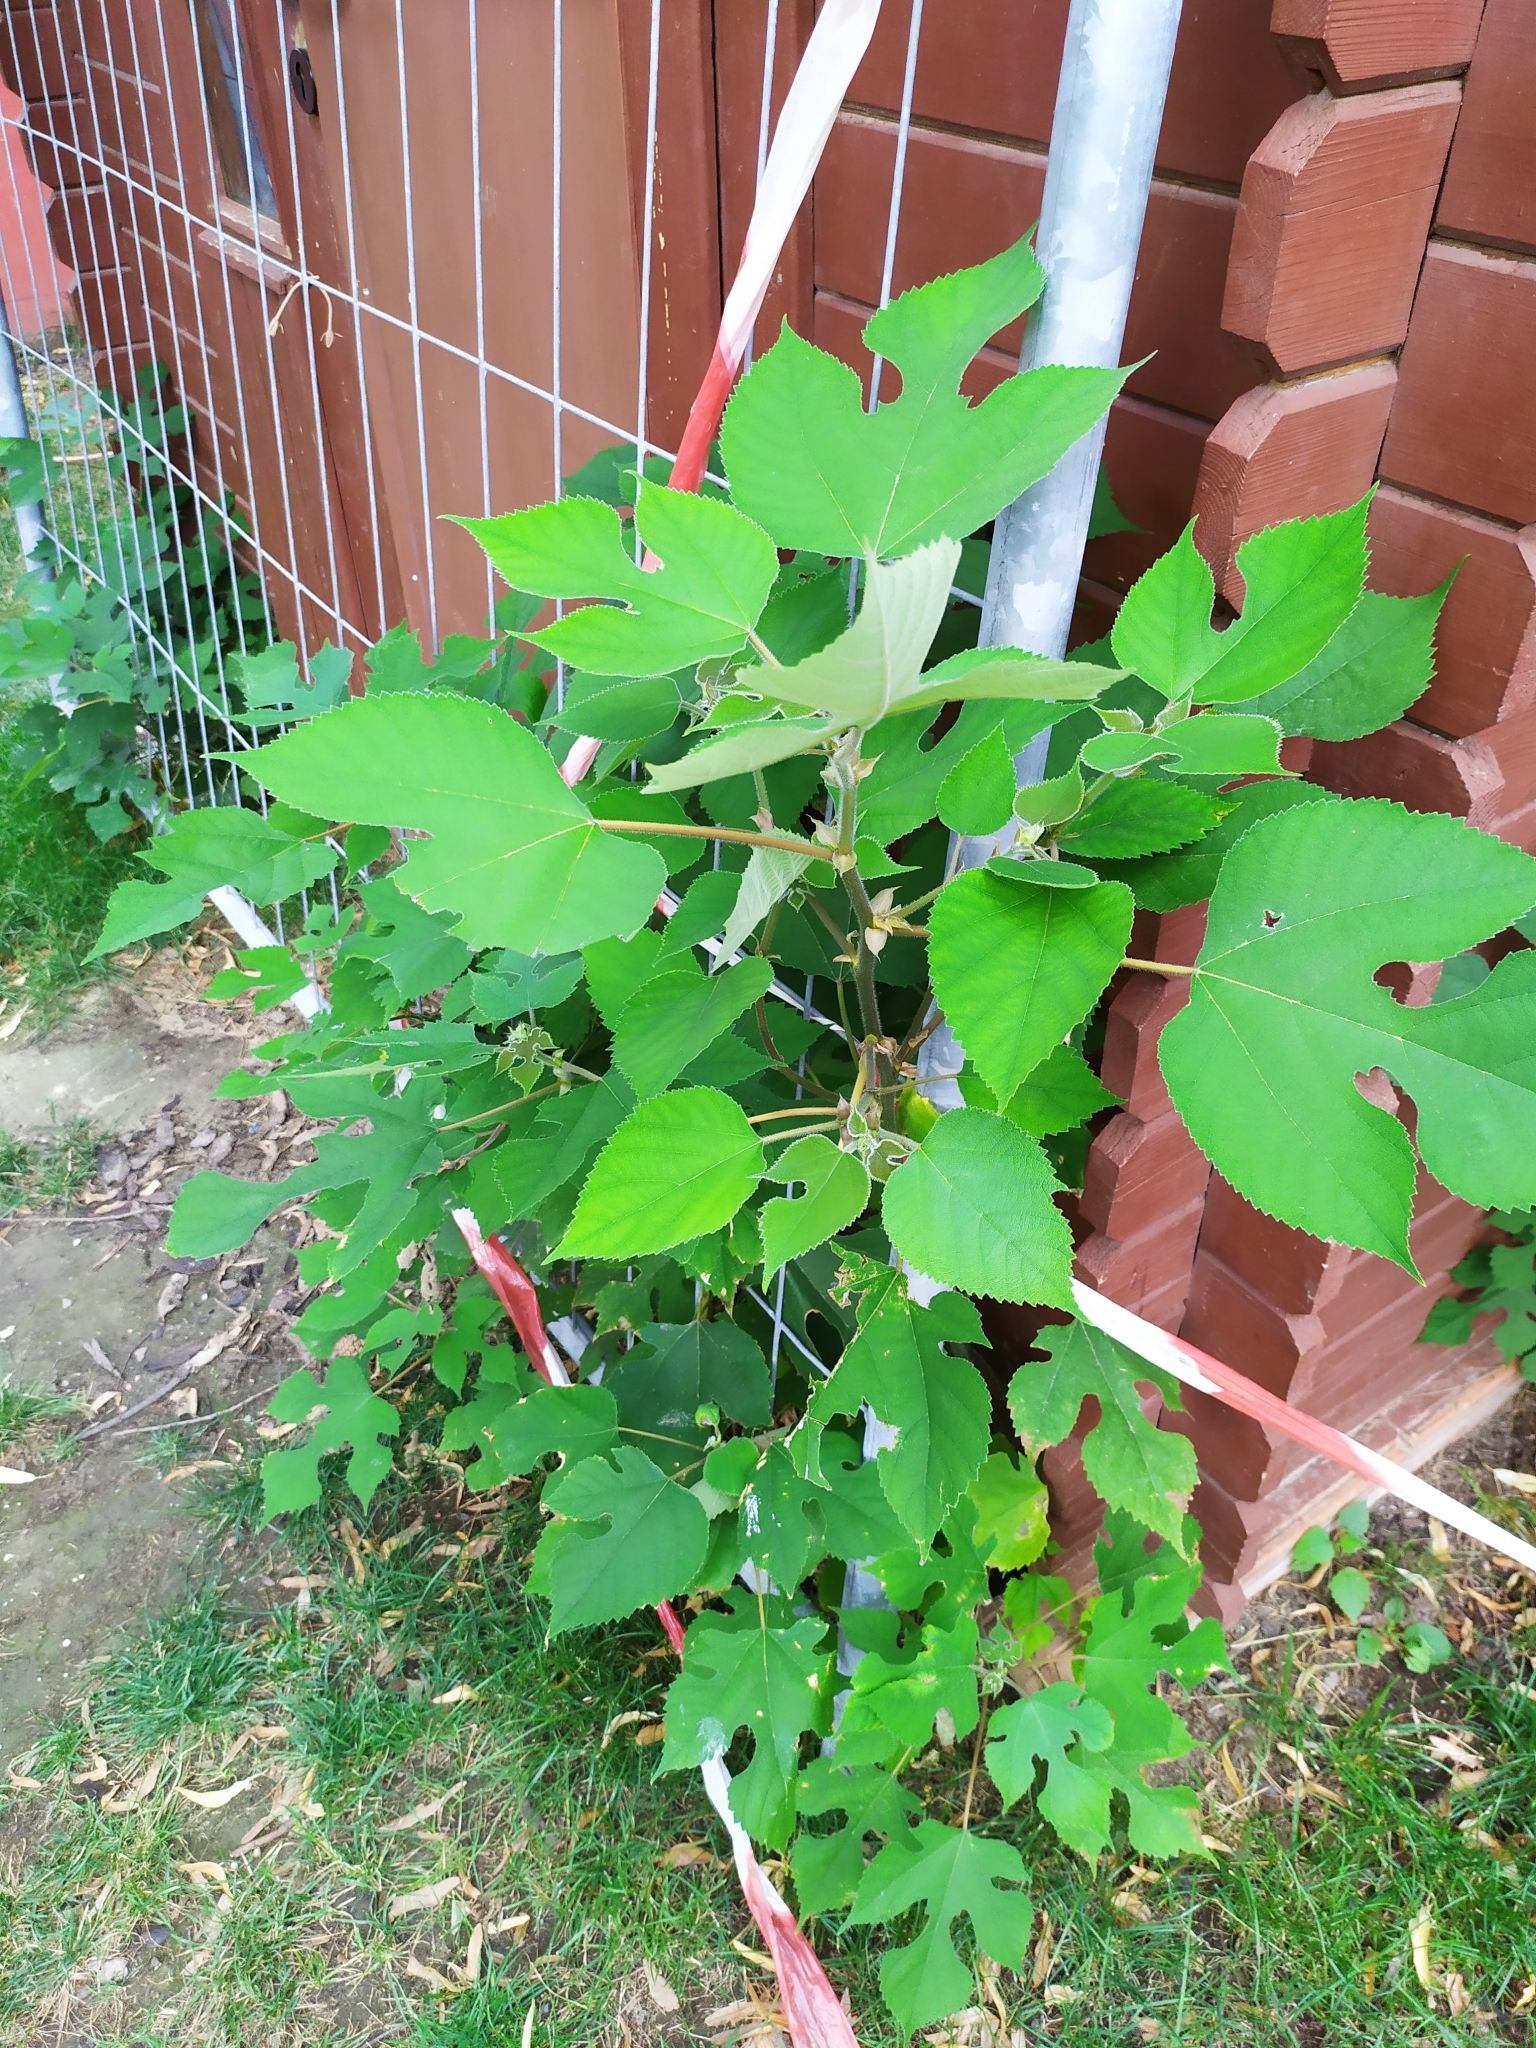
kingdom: Plantae
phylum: Tracheophyta
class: Magnoliopsida
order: Rosales
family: Moraceae
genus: Broussonetia
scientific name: Broussonetia papyrifera
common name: Paper mulberry
